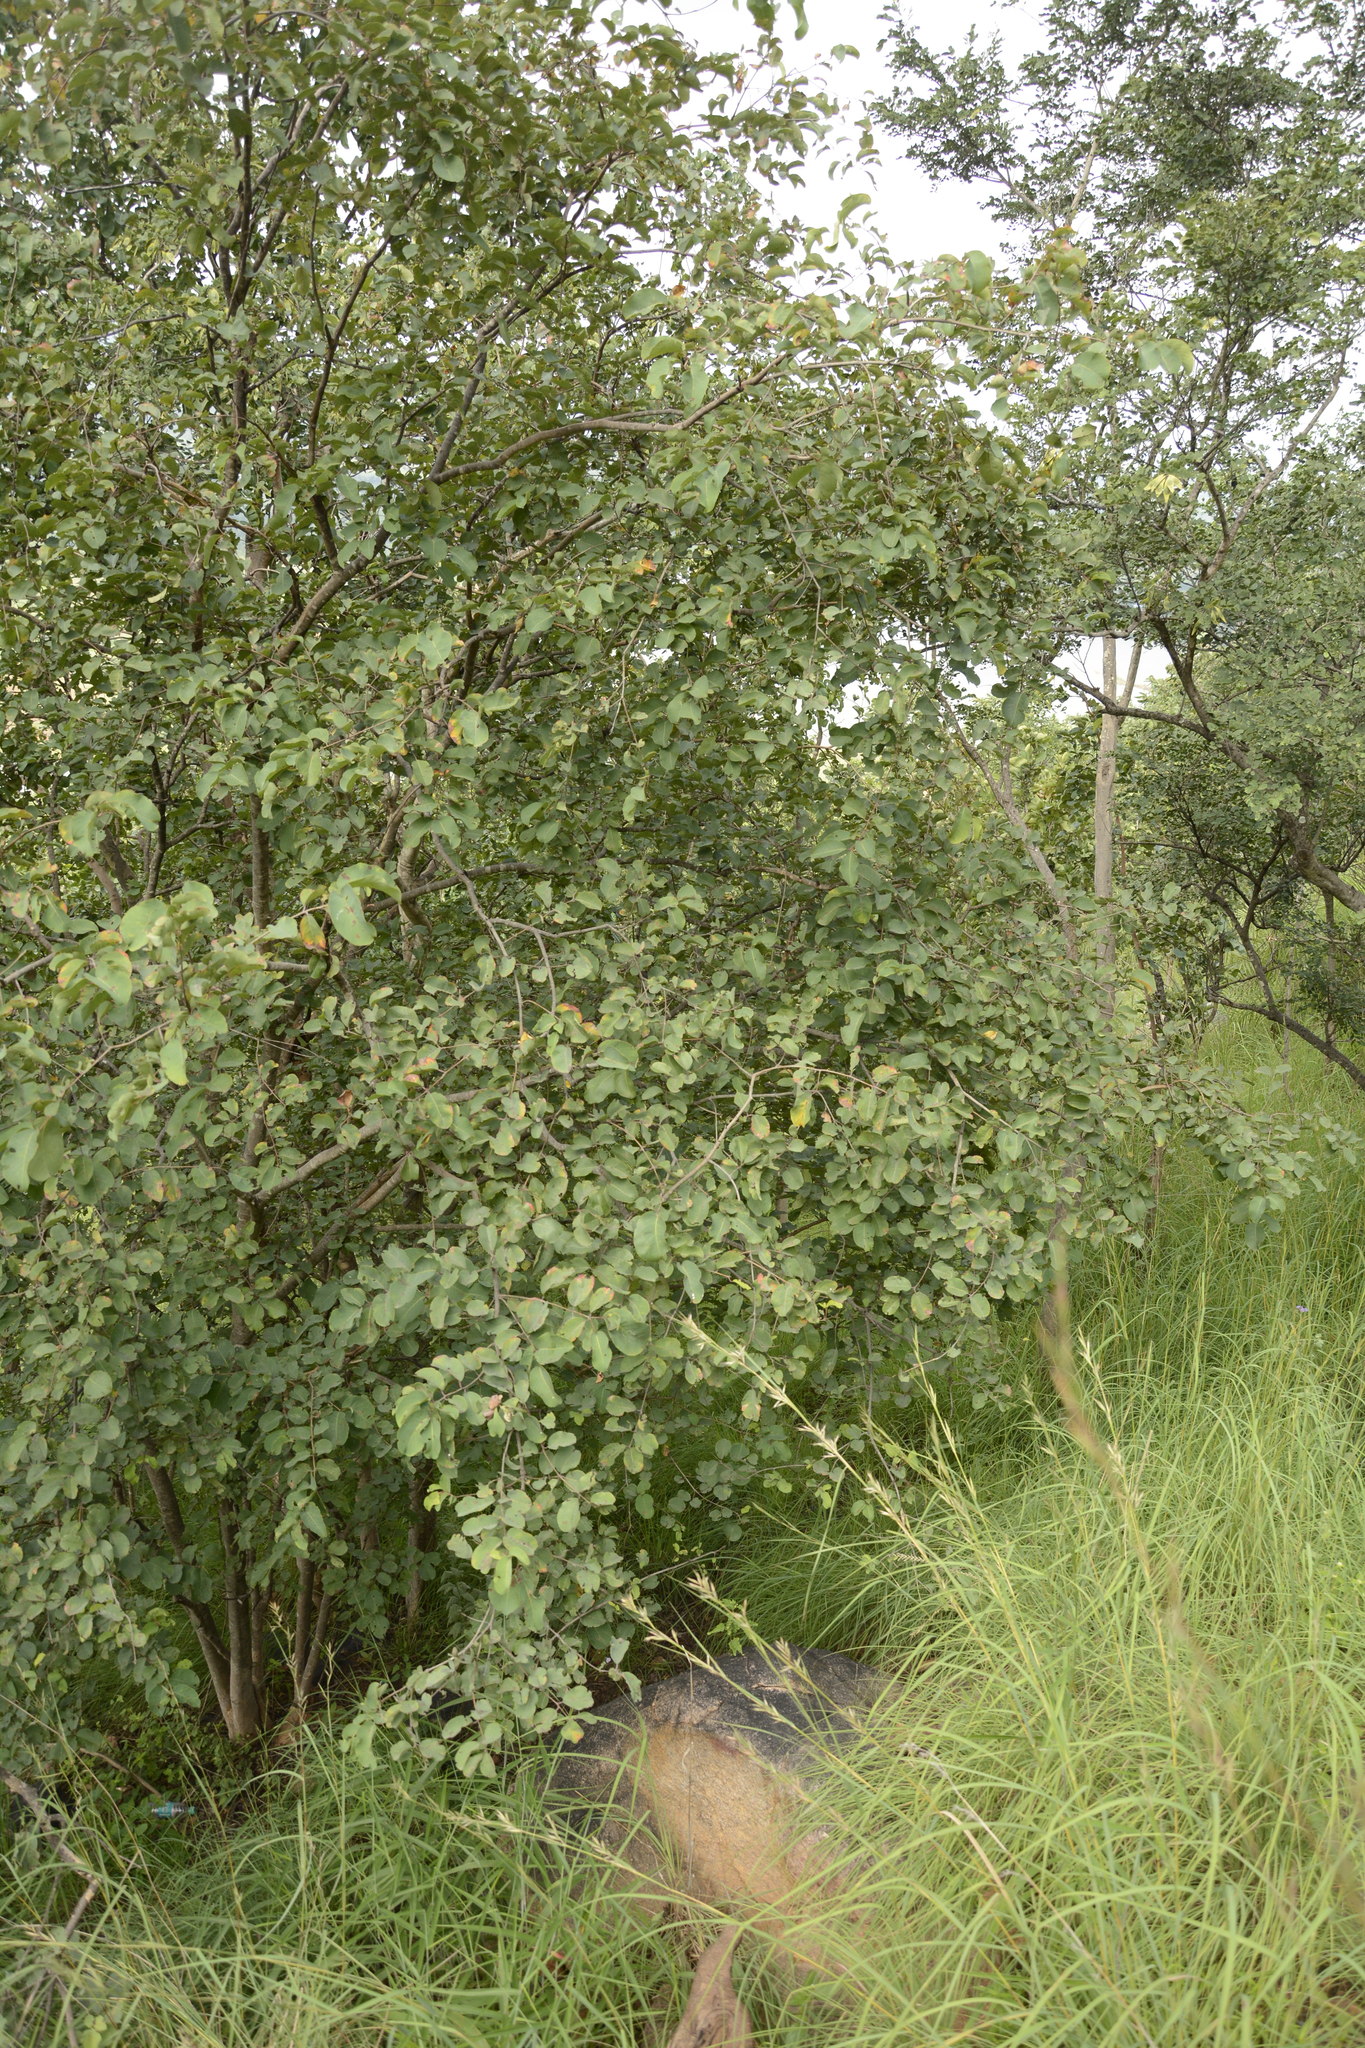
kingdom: Plantae
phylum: Tracheophyta
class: Magnoliopsida
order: Myrtales
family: Combretaceae
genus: Terminalia
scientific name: Terminalia latifolia
